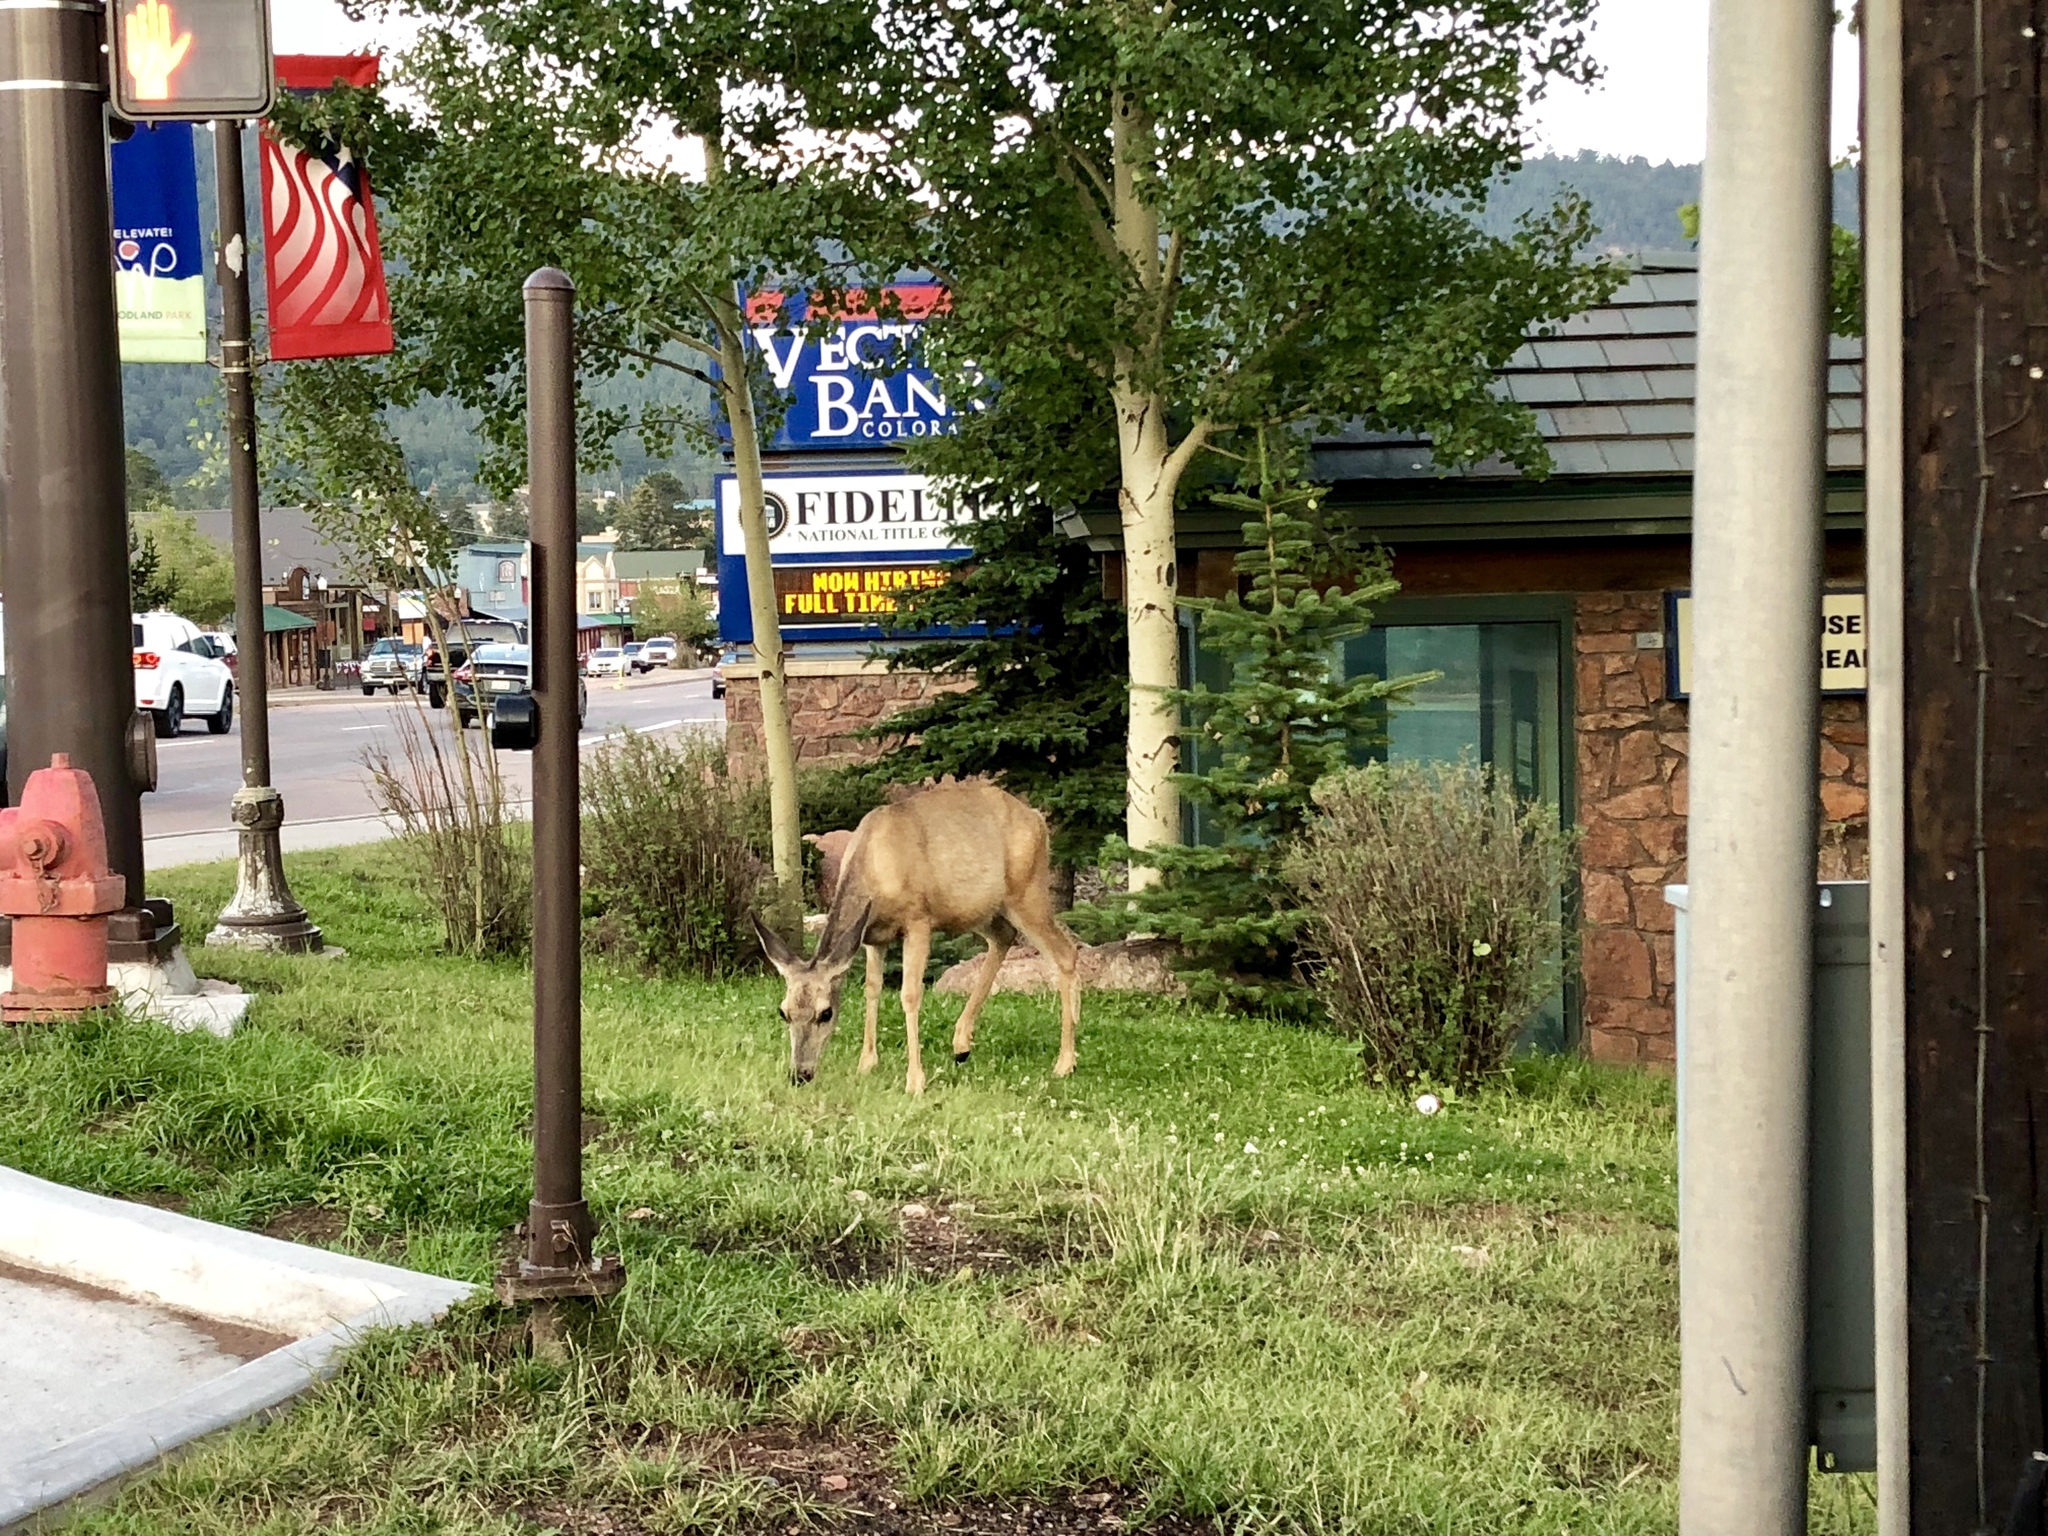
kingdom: Animalia
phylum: Chordata
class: Mammalia
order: Artiodactyla
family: Cervidae
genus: Odocoileus
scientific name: Odocoileus hemionus
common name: Mule deer
